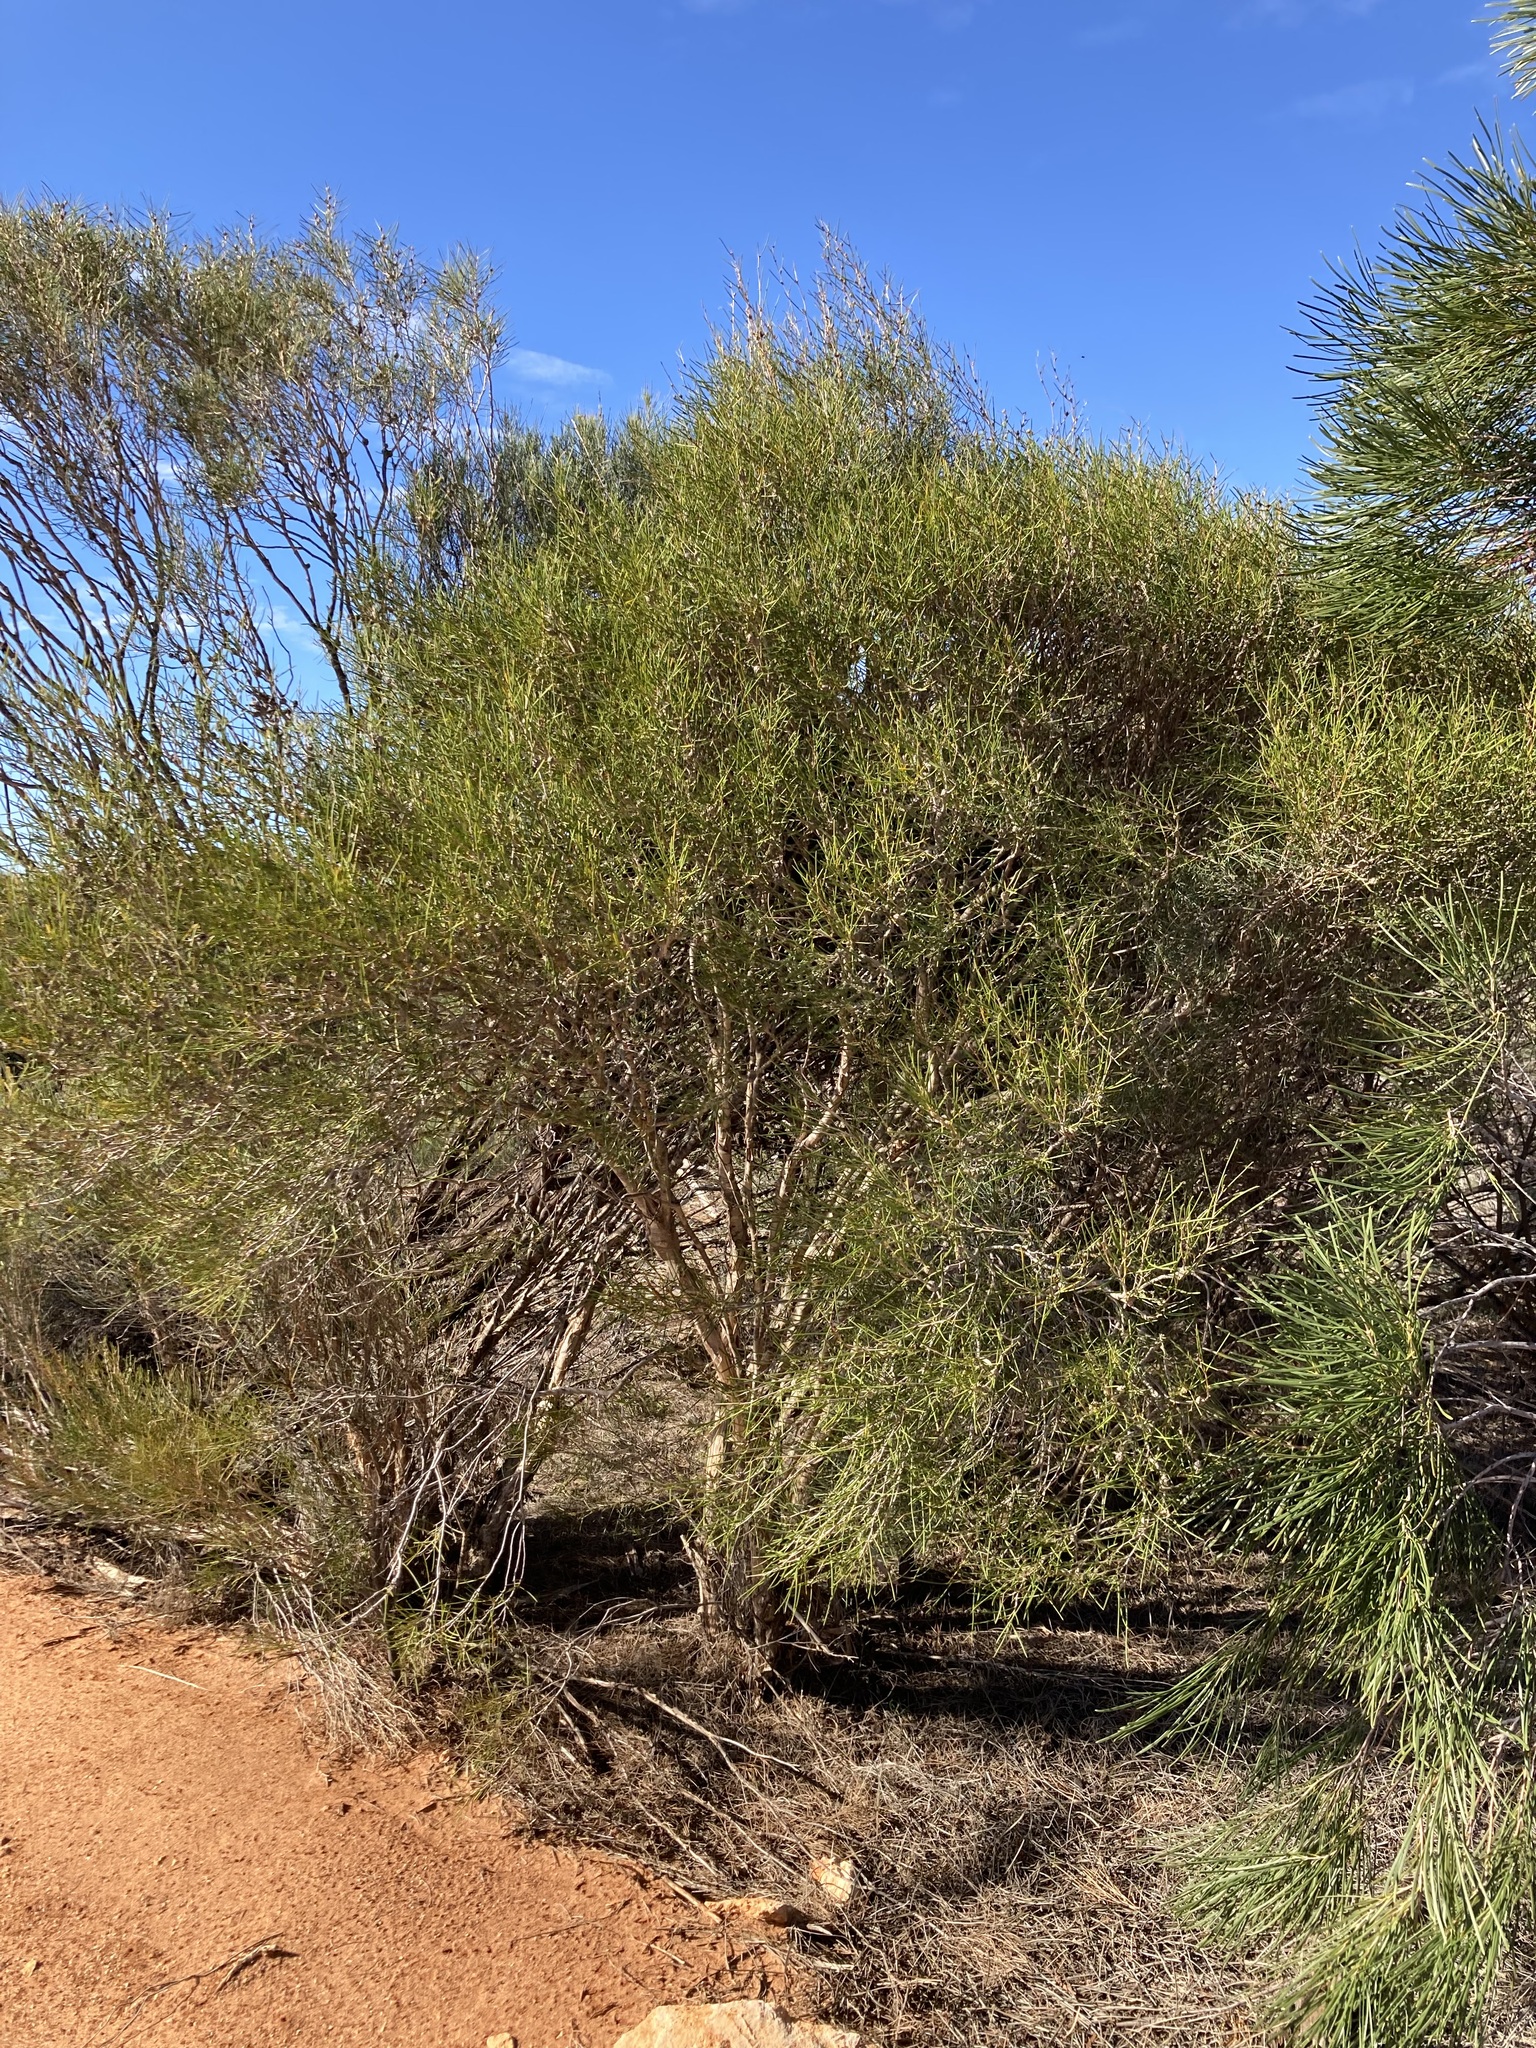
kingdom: Plantae
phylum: Tracheophyta
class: Magnoliopsida
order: Myrtales
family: Myrtaceae
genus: Melaleuca
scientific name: Melaleuca concreta
